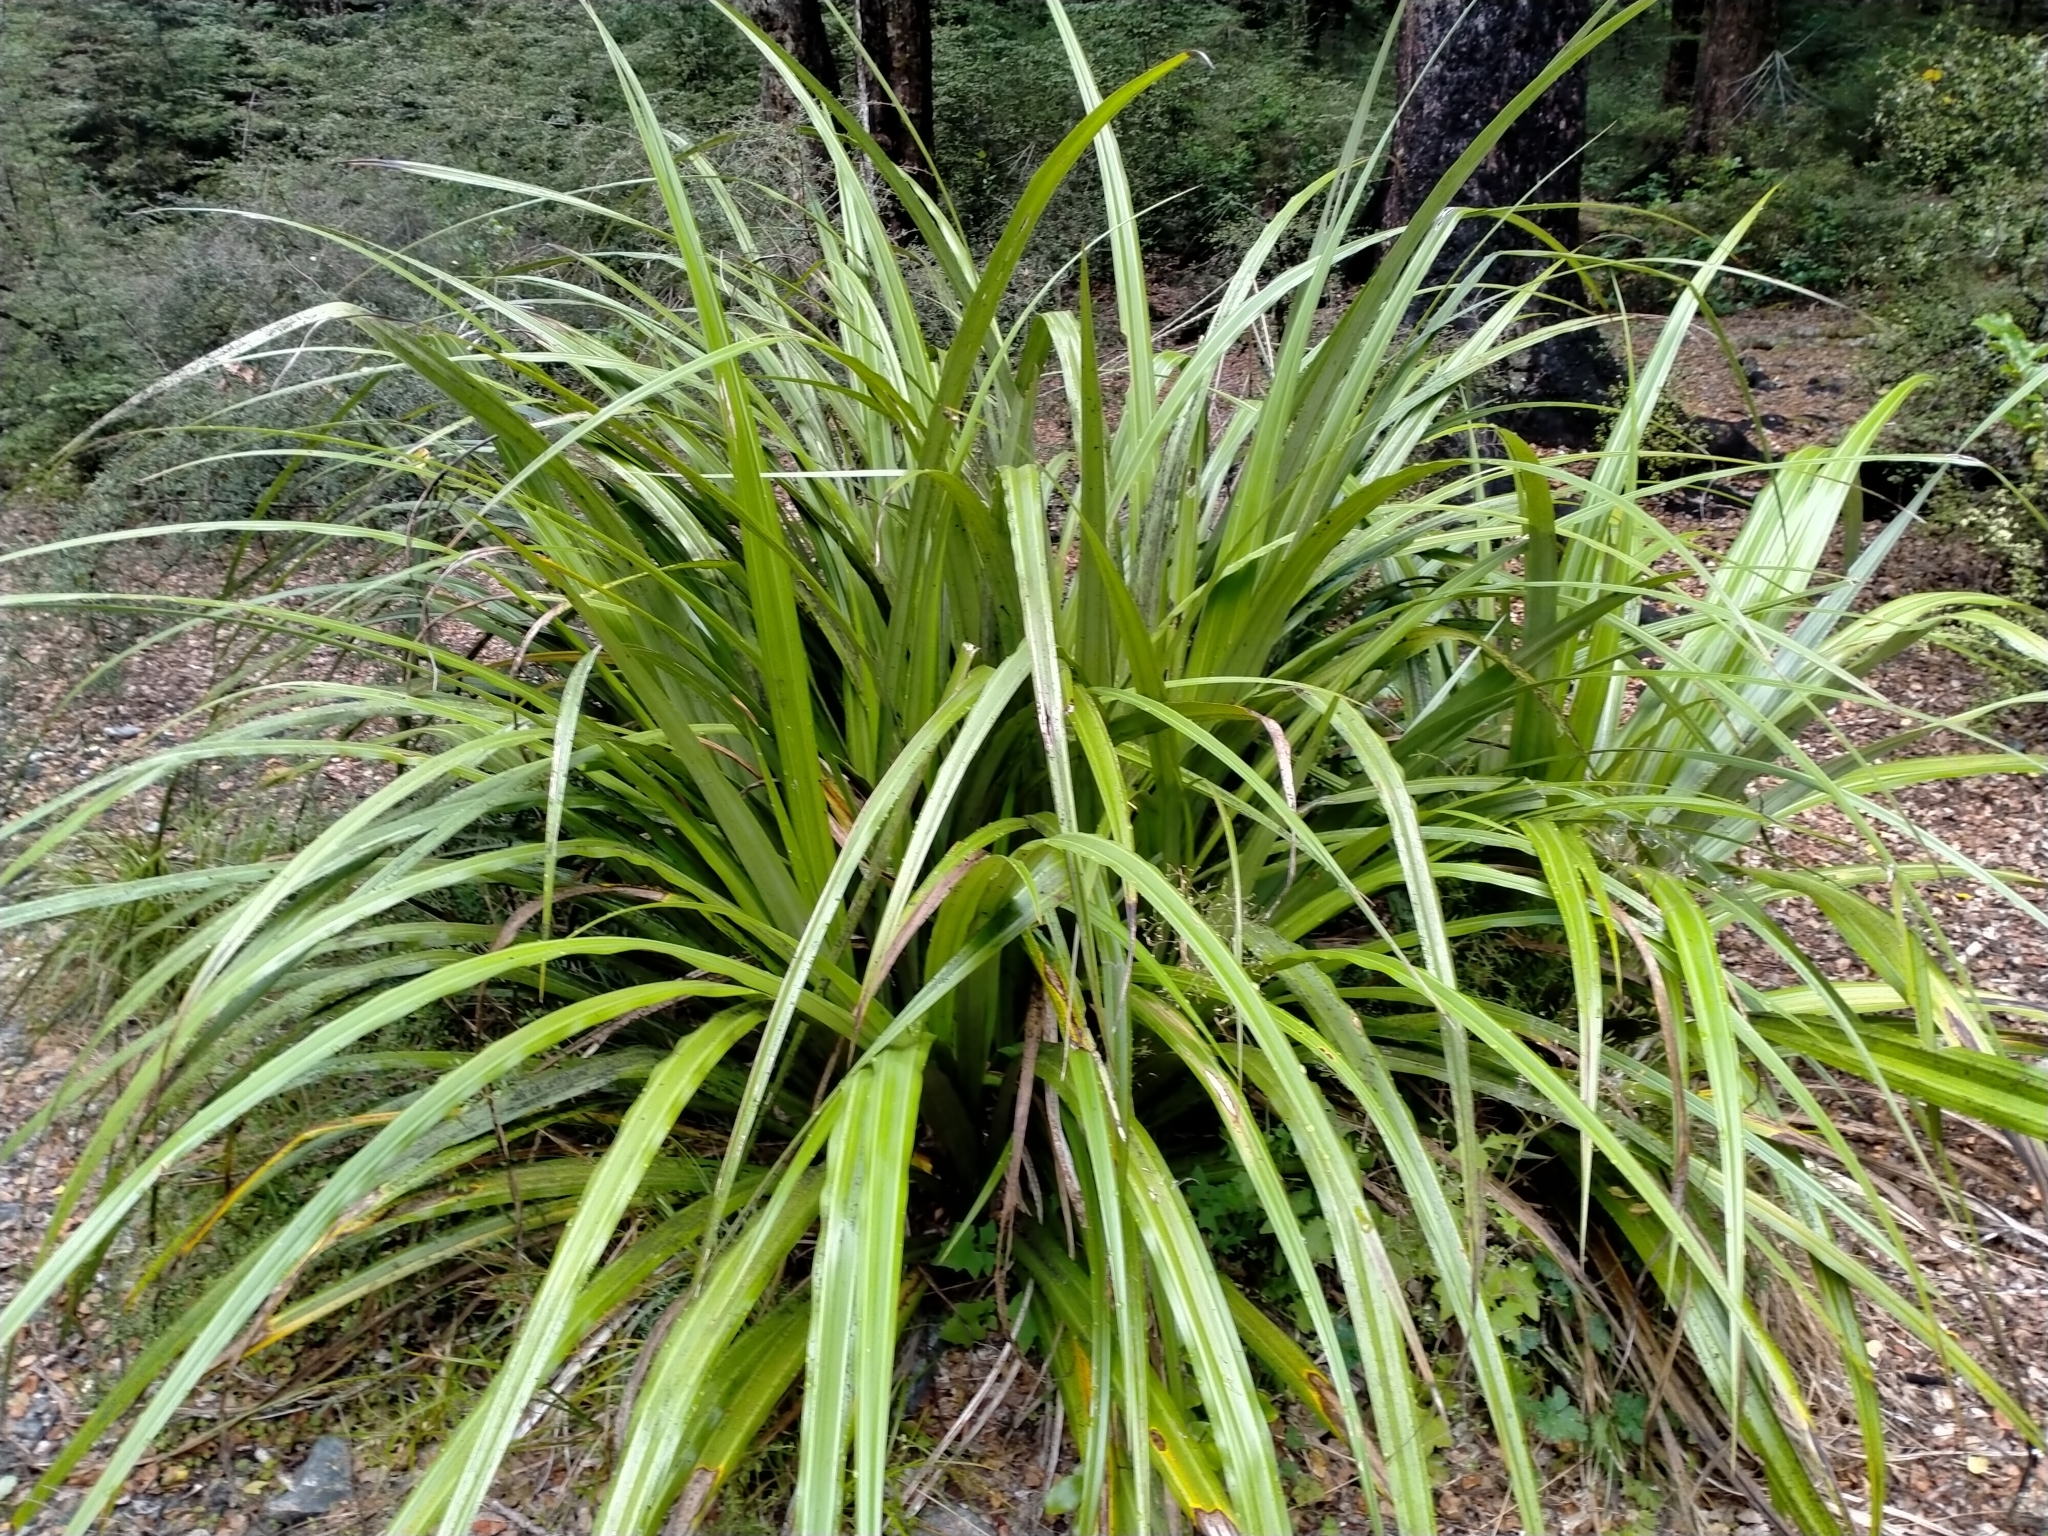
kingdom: Plantae
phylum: Tracheophyta
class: Liliopsida
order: Asparagales
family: Asteliaceae
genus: Astelia
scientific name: Astelia fragrans
